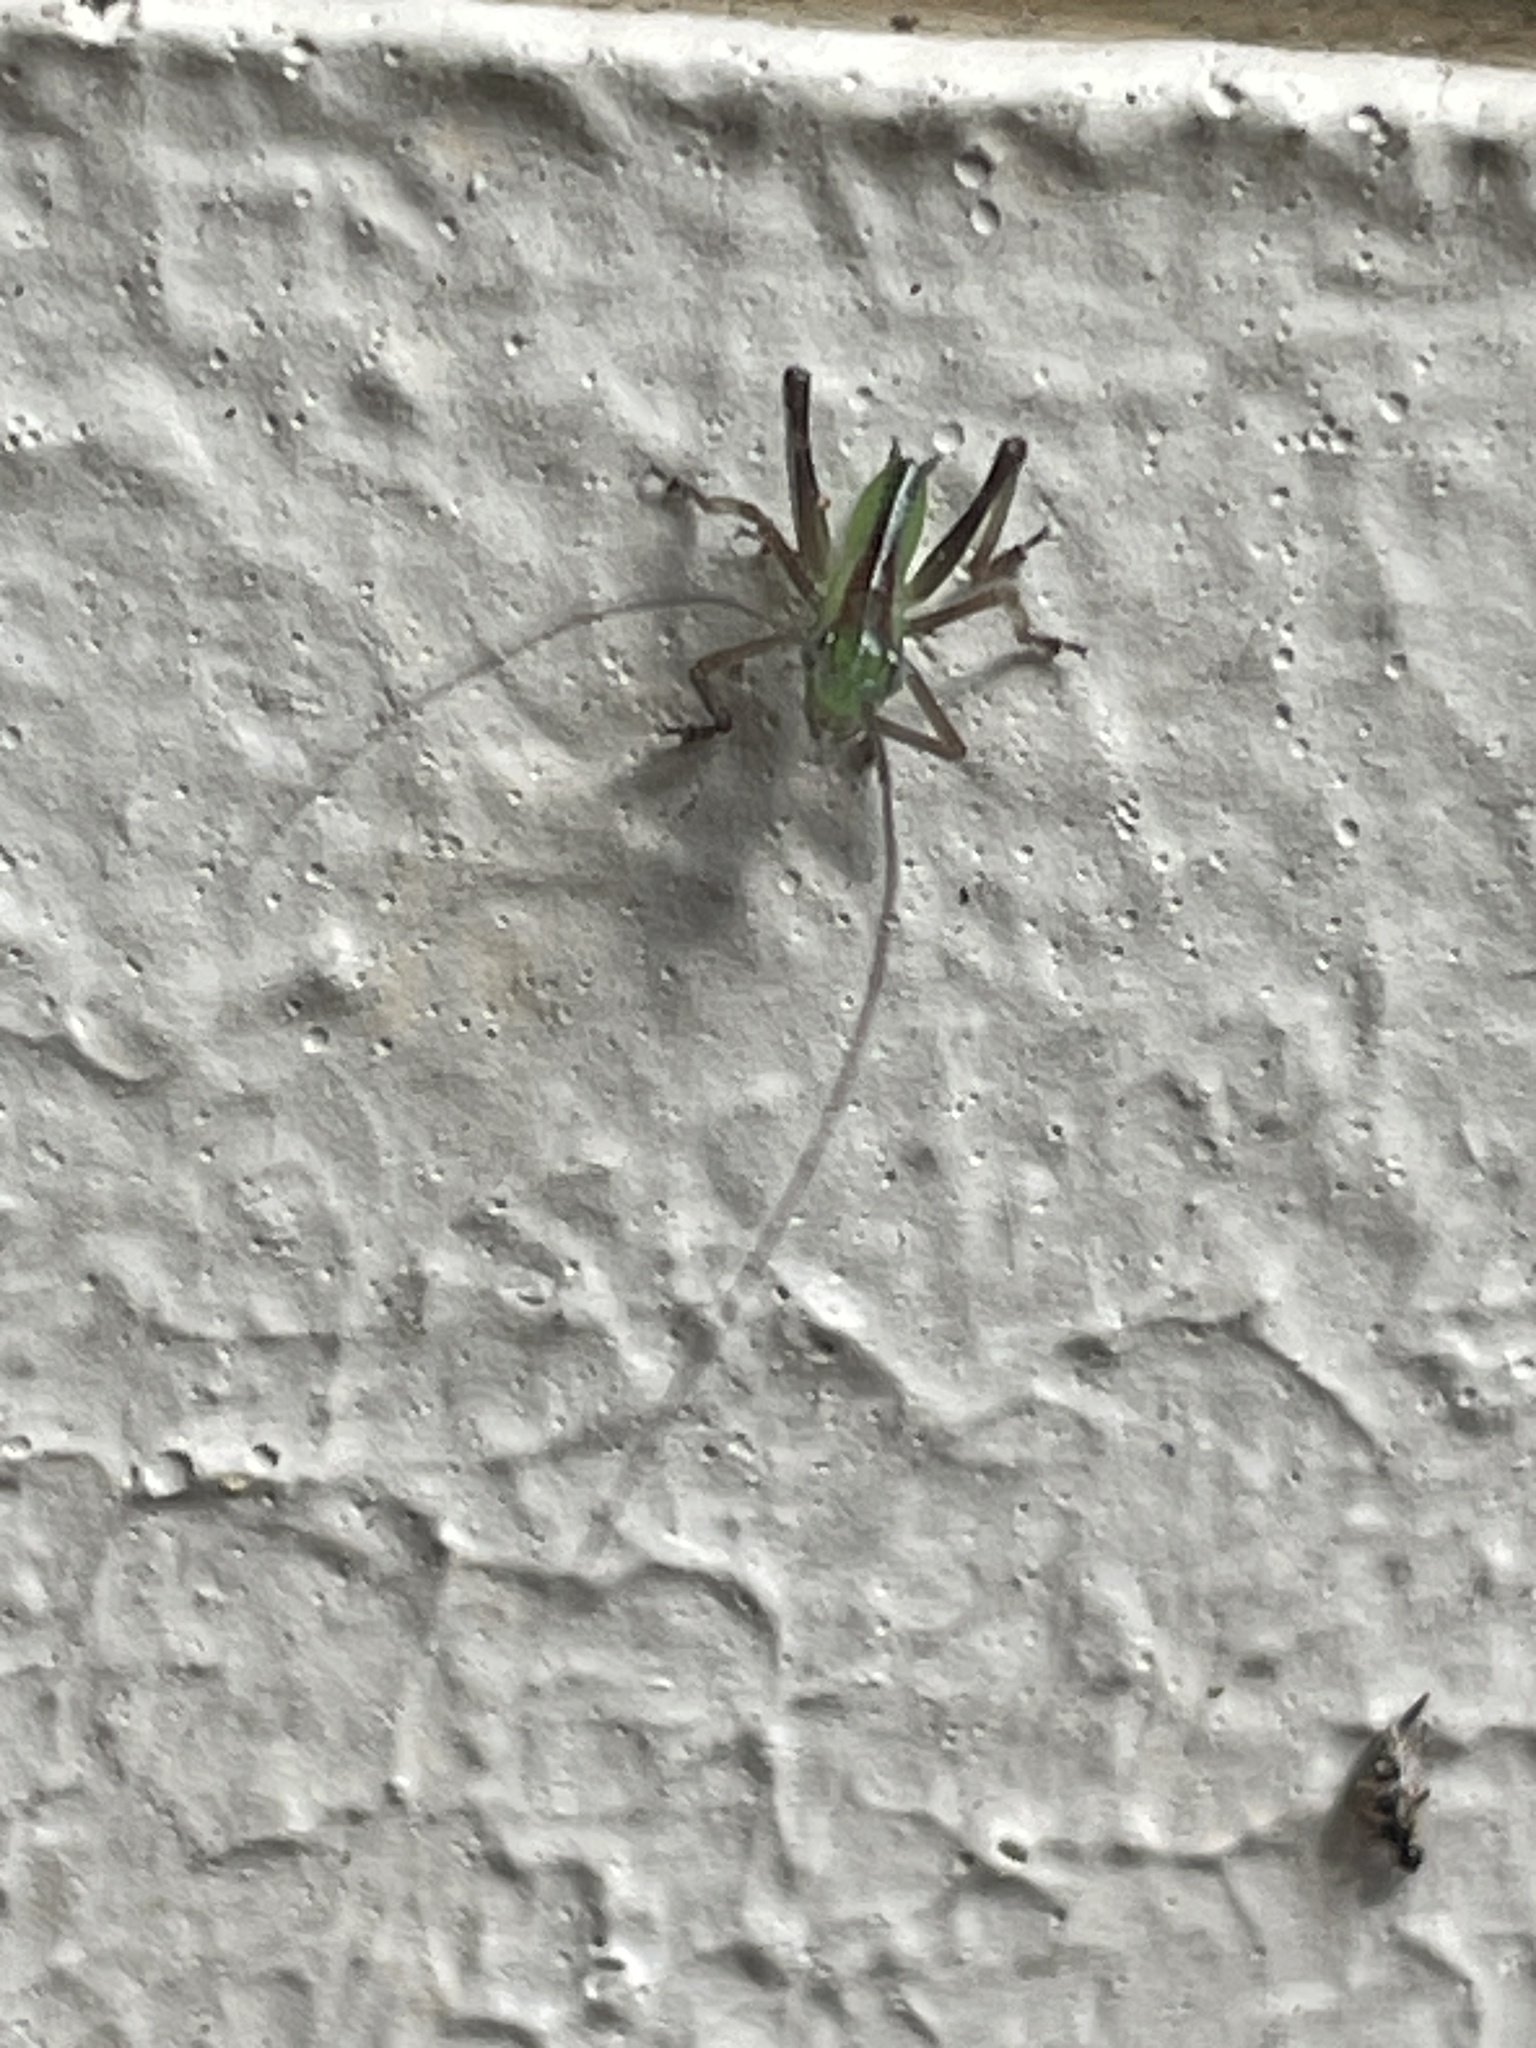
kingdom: Animalia
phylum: Arthropoda
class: Insecta
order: Orthoptera
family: Tettigoniidae
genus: Conocephalomima
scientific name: Conocephalomima barameda
